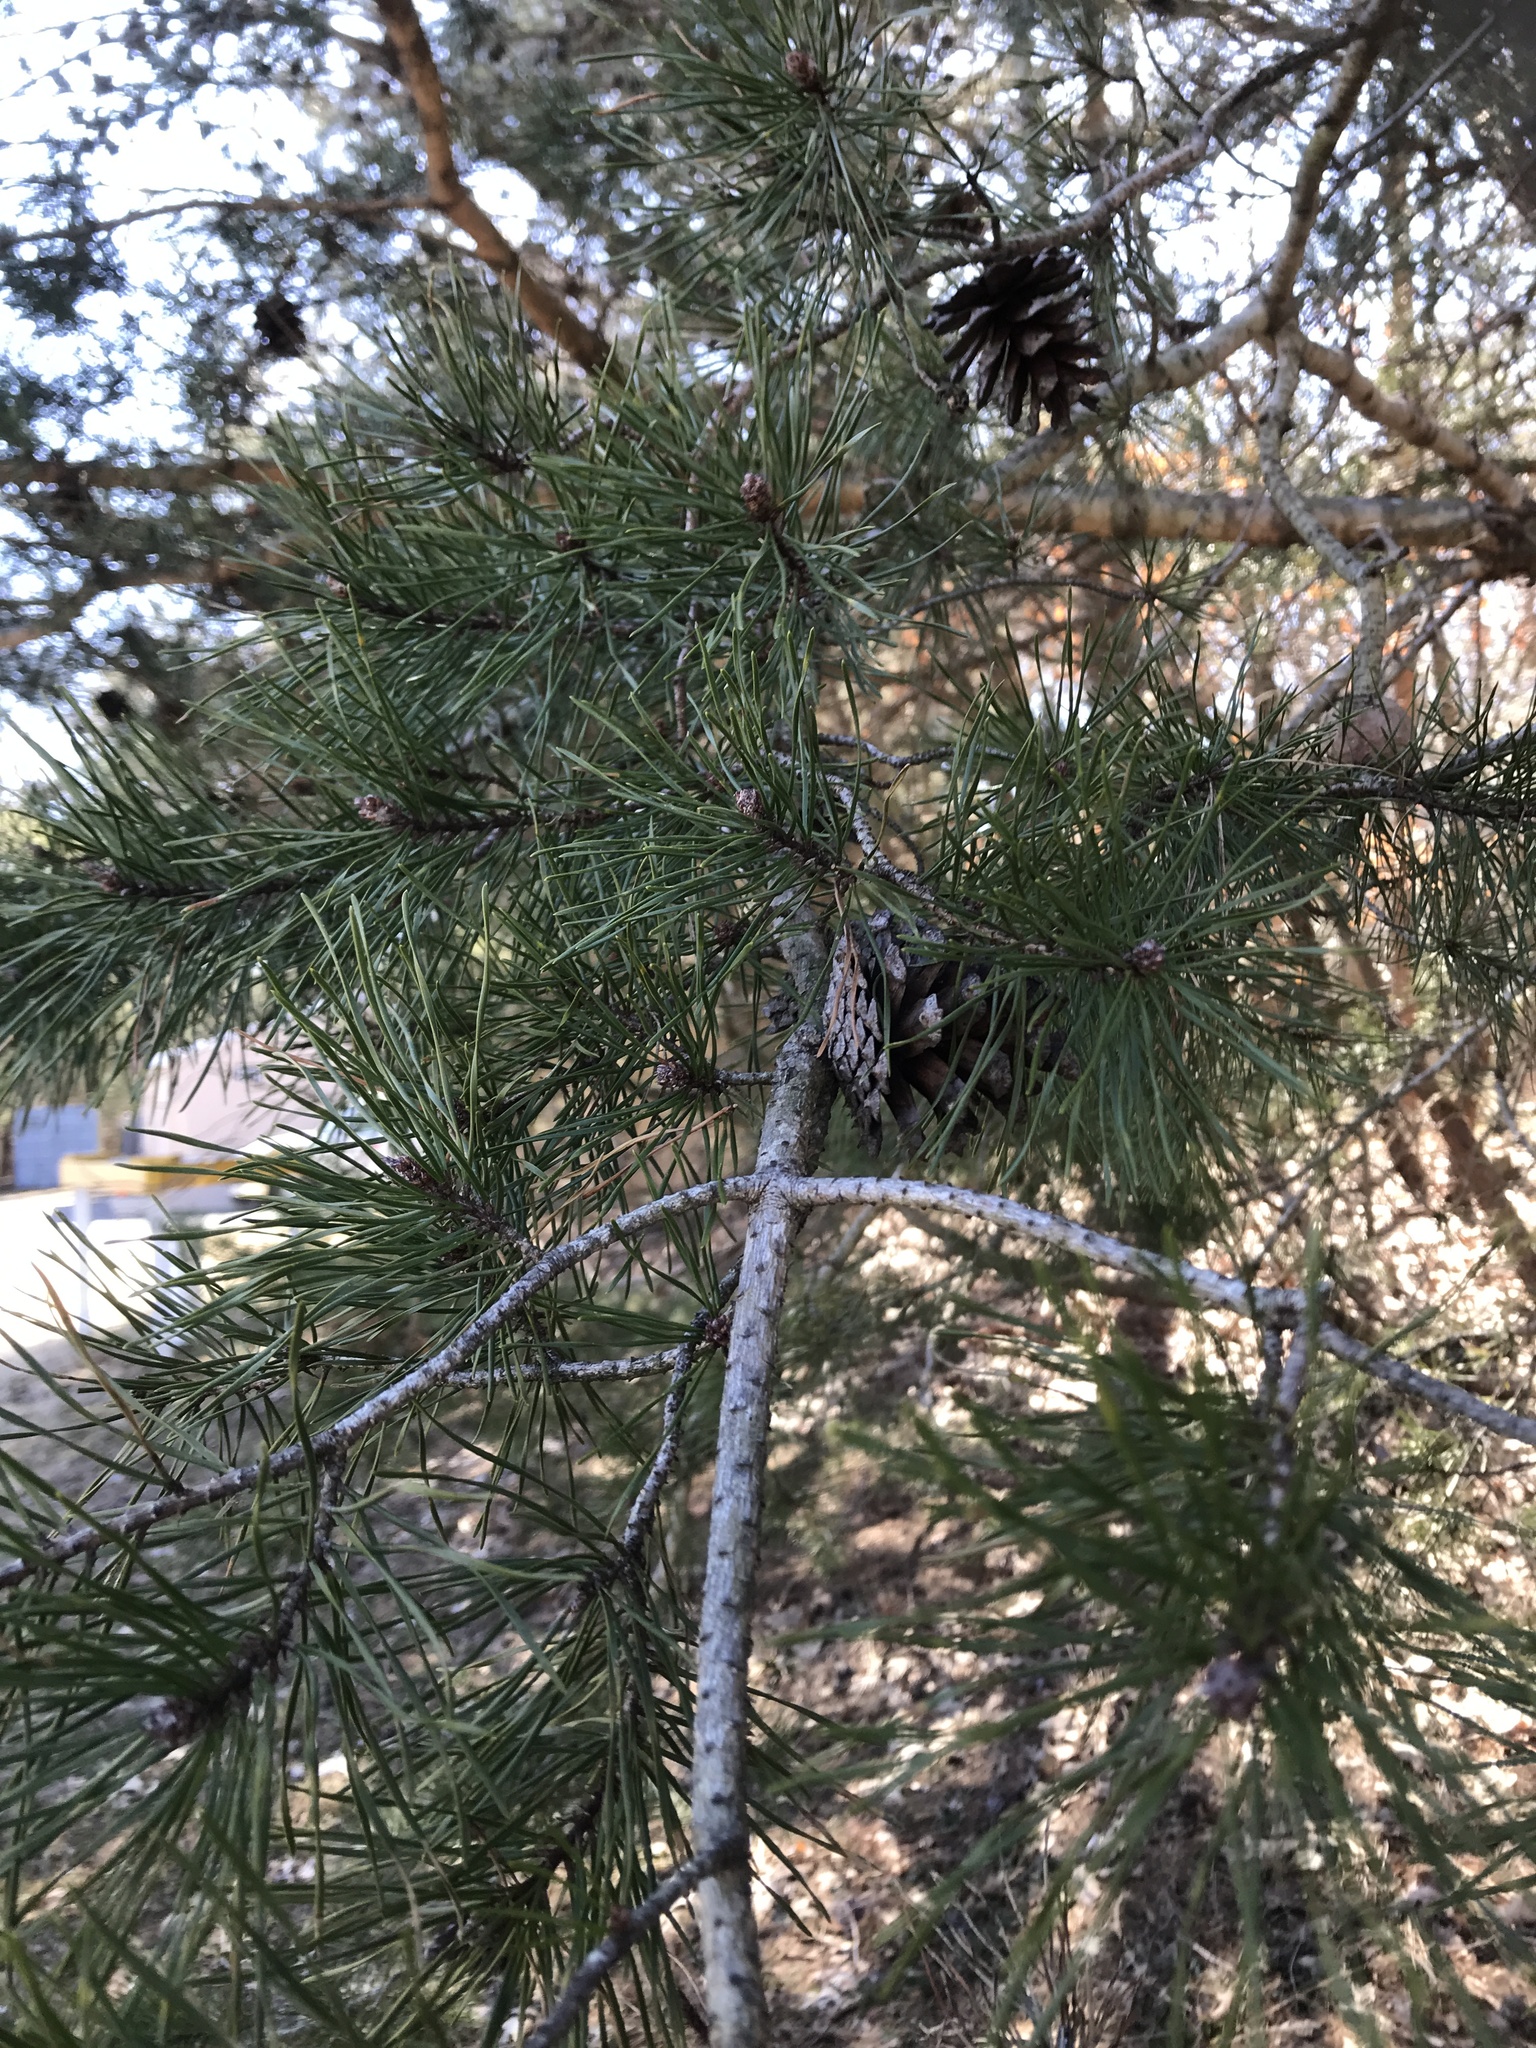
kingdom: Plantae
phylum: Tracheophyta
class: Pinopsida
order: Pinales
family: Pinaceae
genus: Pinus
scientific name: Pinus virginiana
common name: Scrub pine
